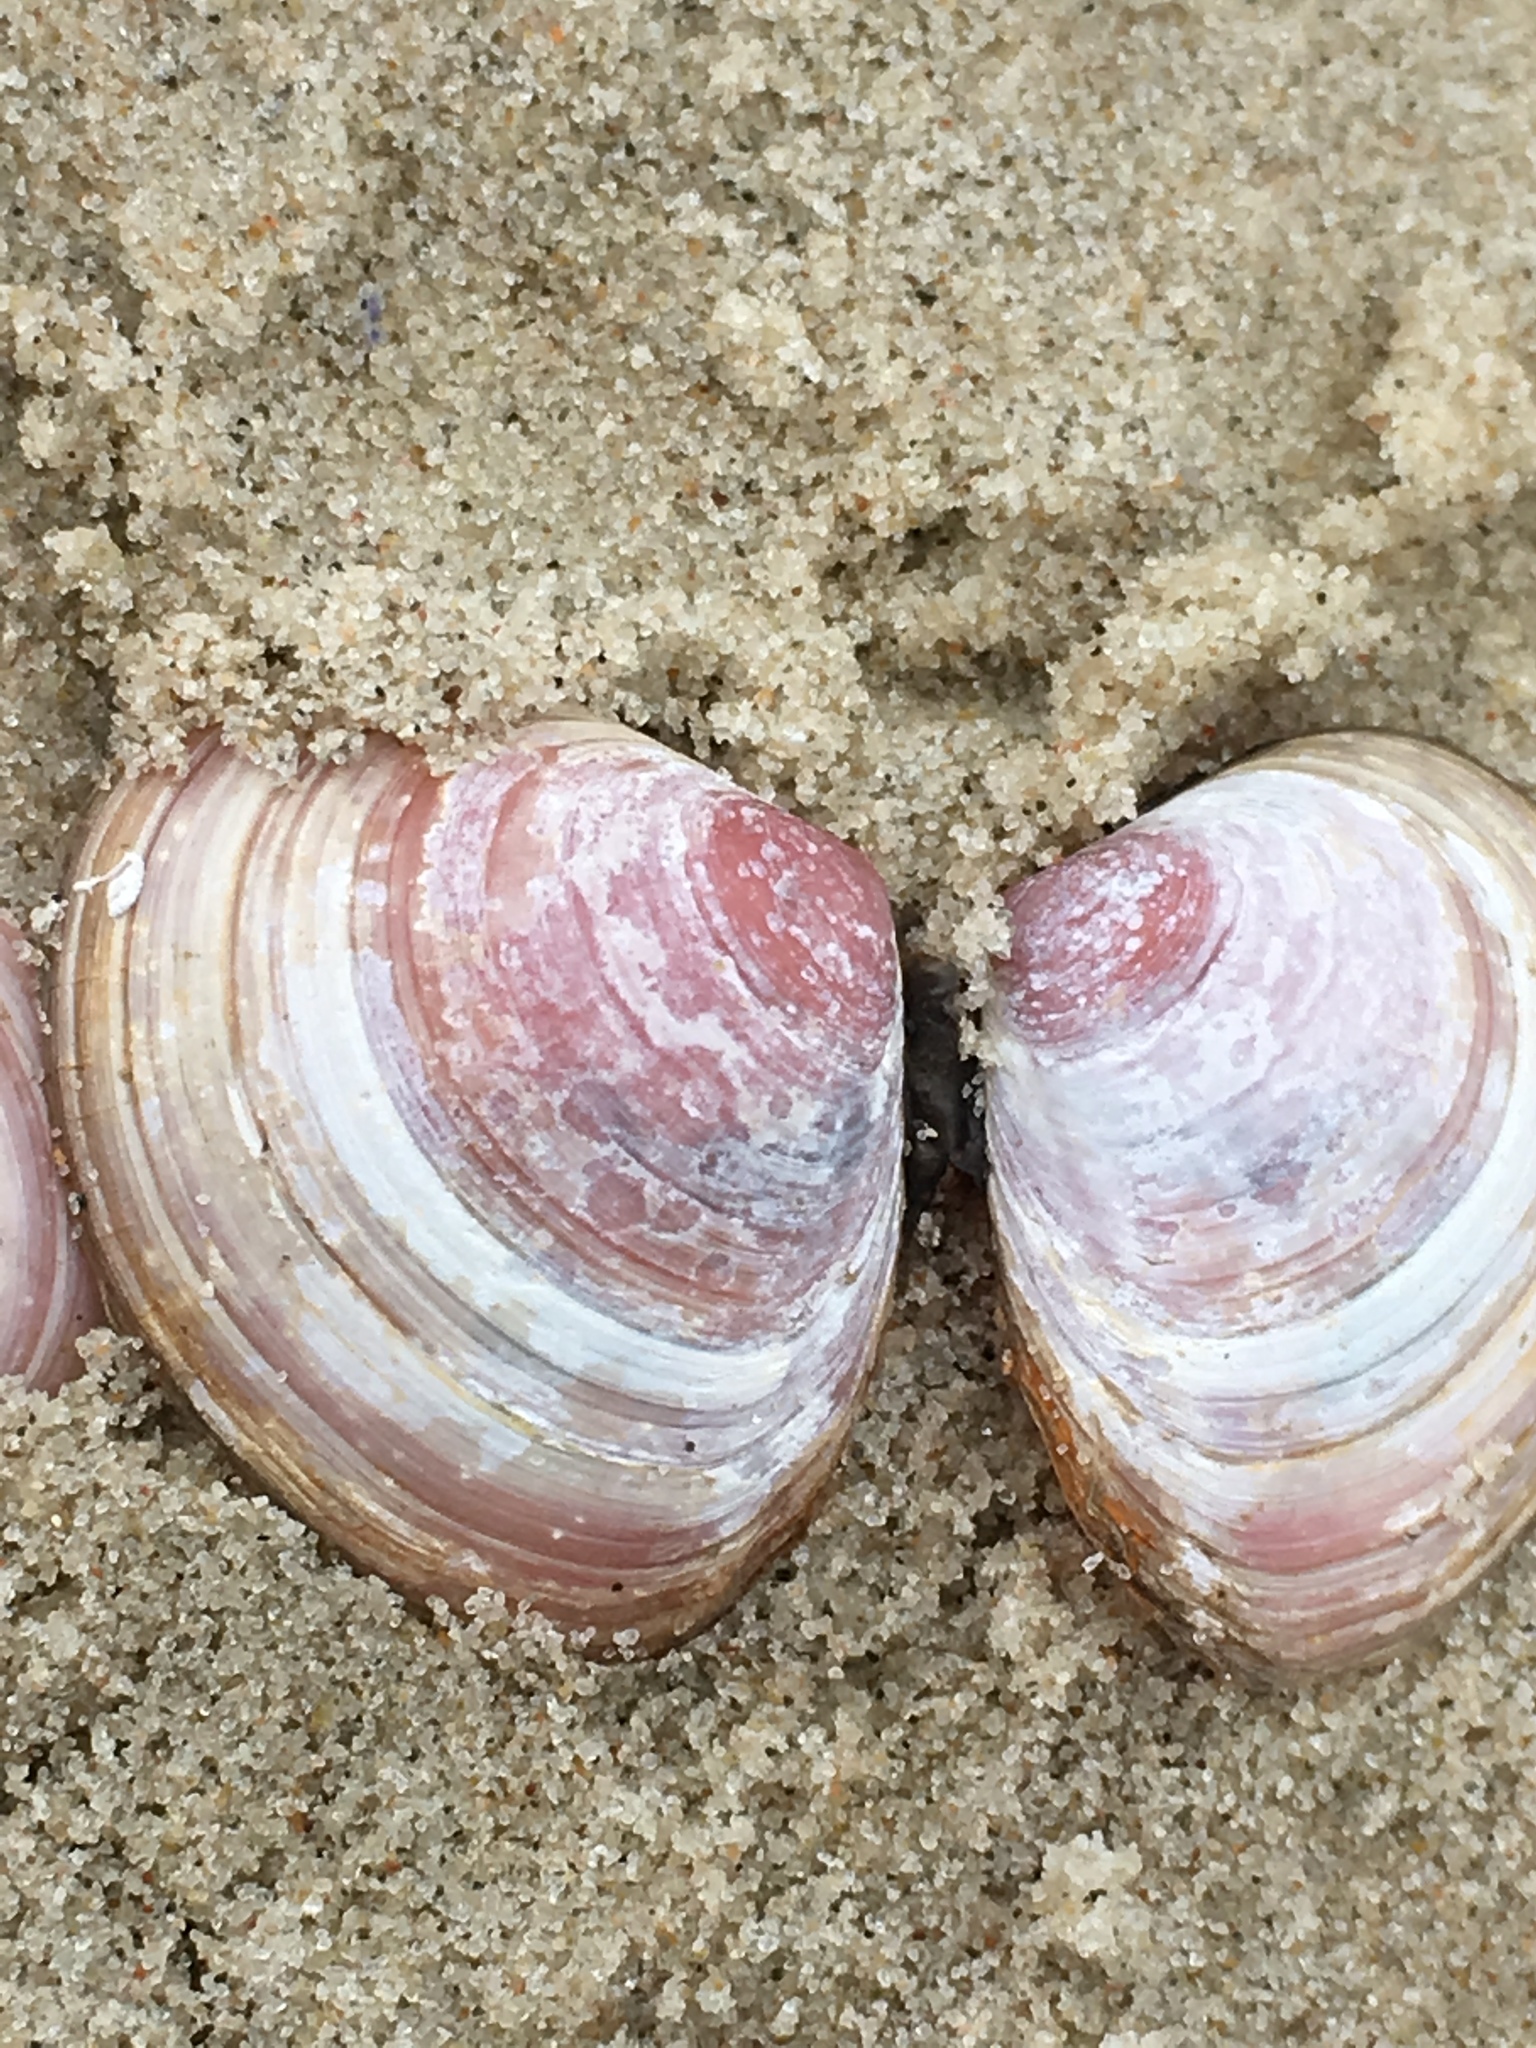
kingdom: Animalia
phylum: Mollusca
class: Bivalvia
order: Cardiida
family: Tellinidae
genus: Macoma
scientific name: Macoma balthica
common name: Baltic tellin
